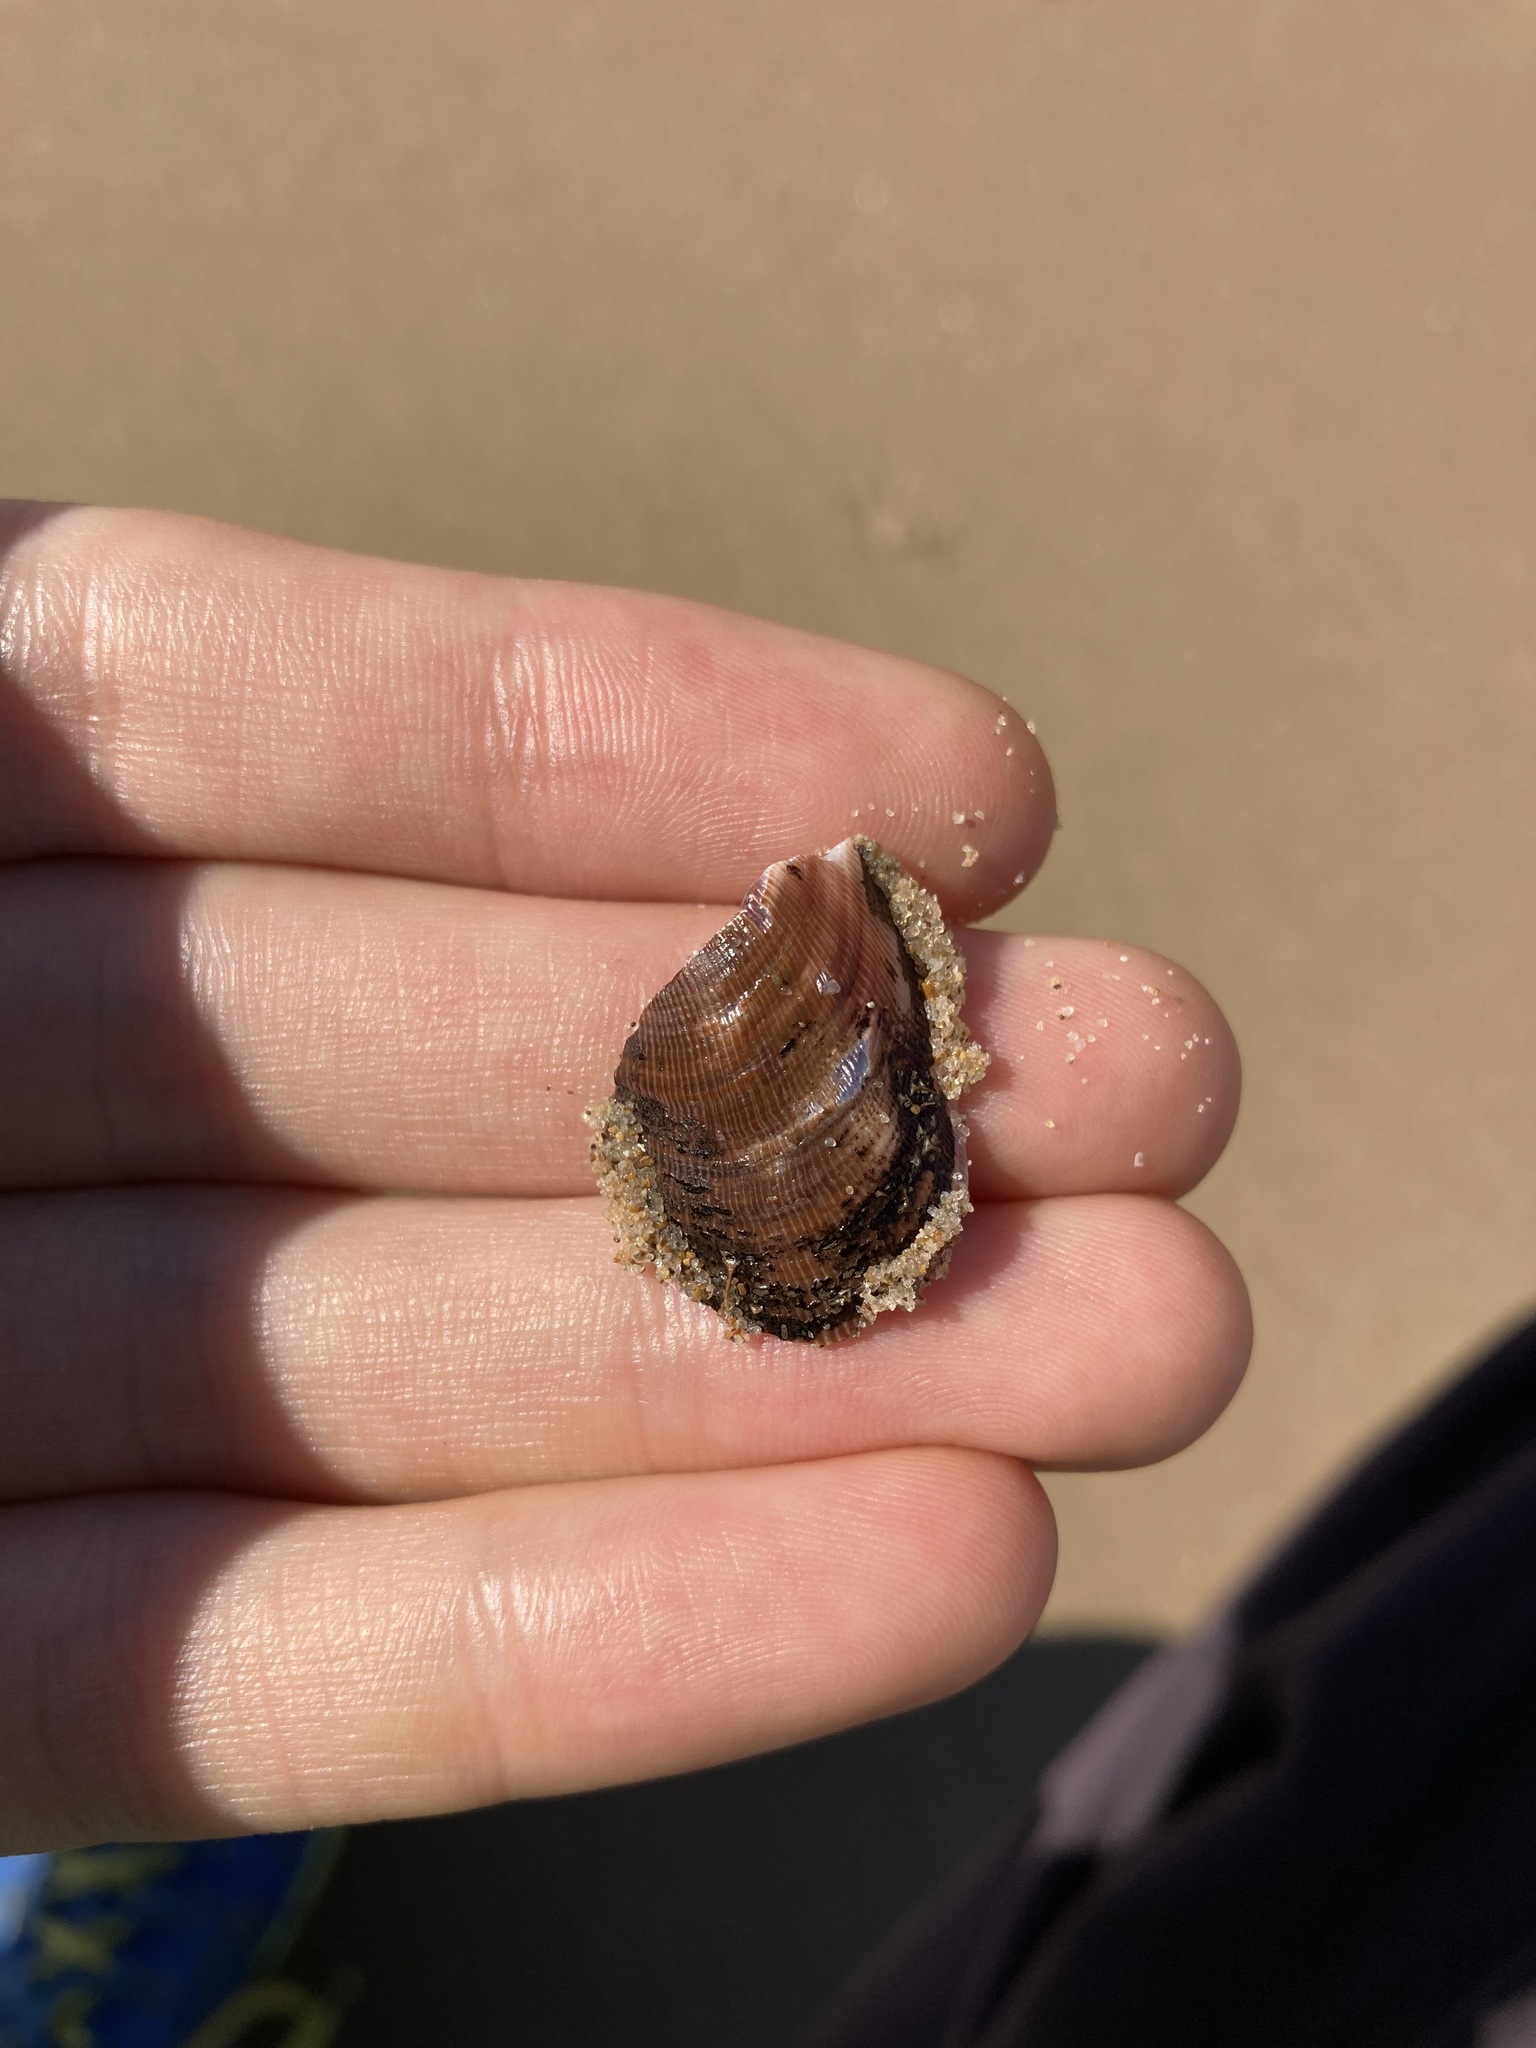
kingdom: Animalia
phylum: Mollusca
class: Bivalvia
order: Mytilida
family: Mytilidae
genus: Trichomya
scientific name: Trichomya hirsuta
